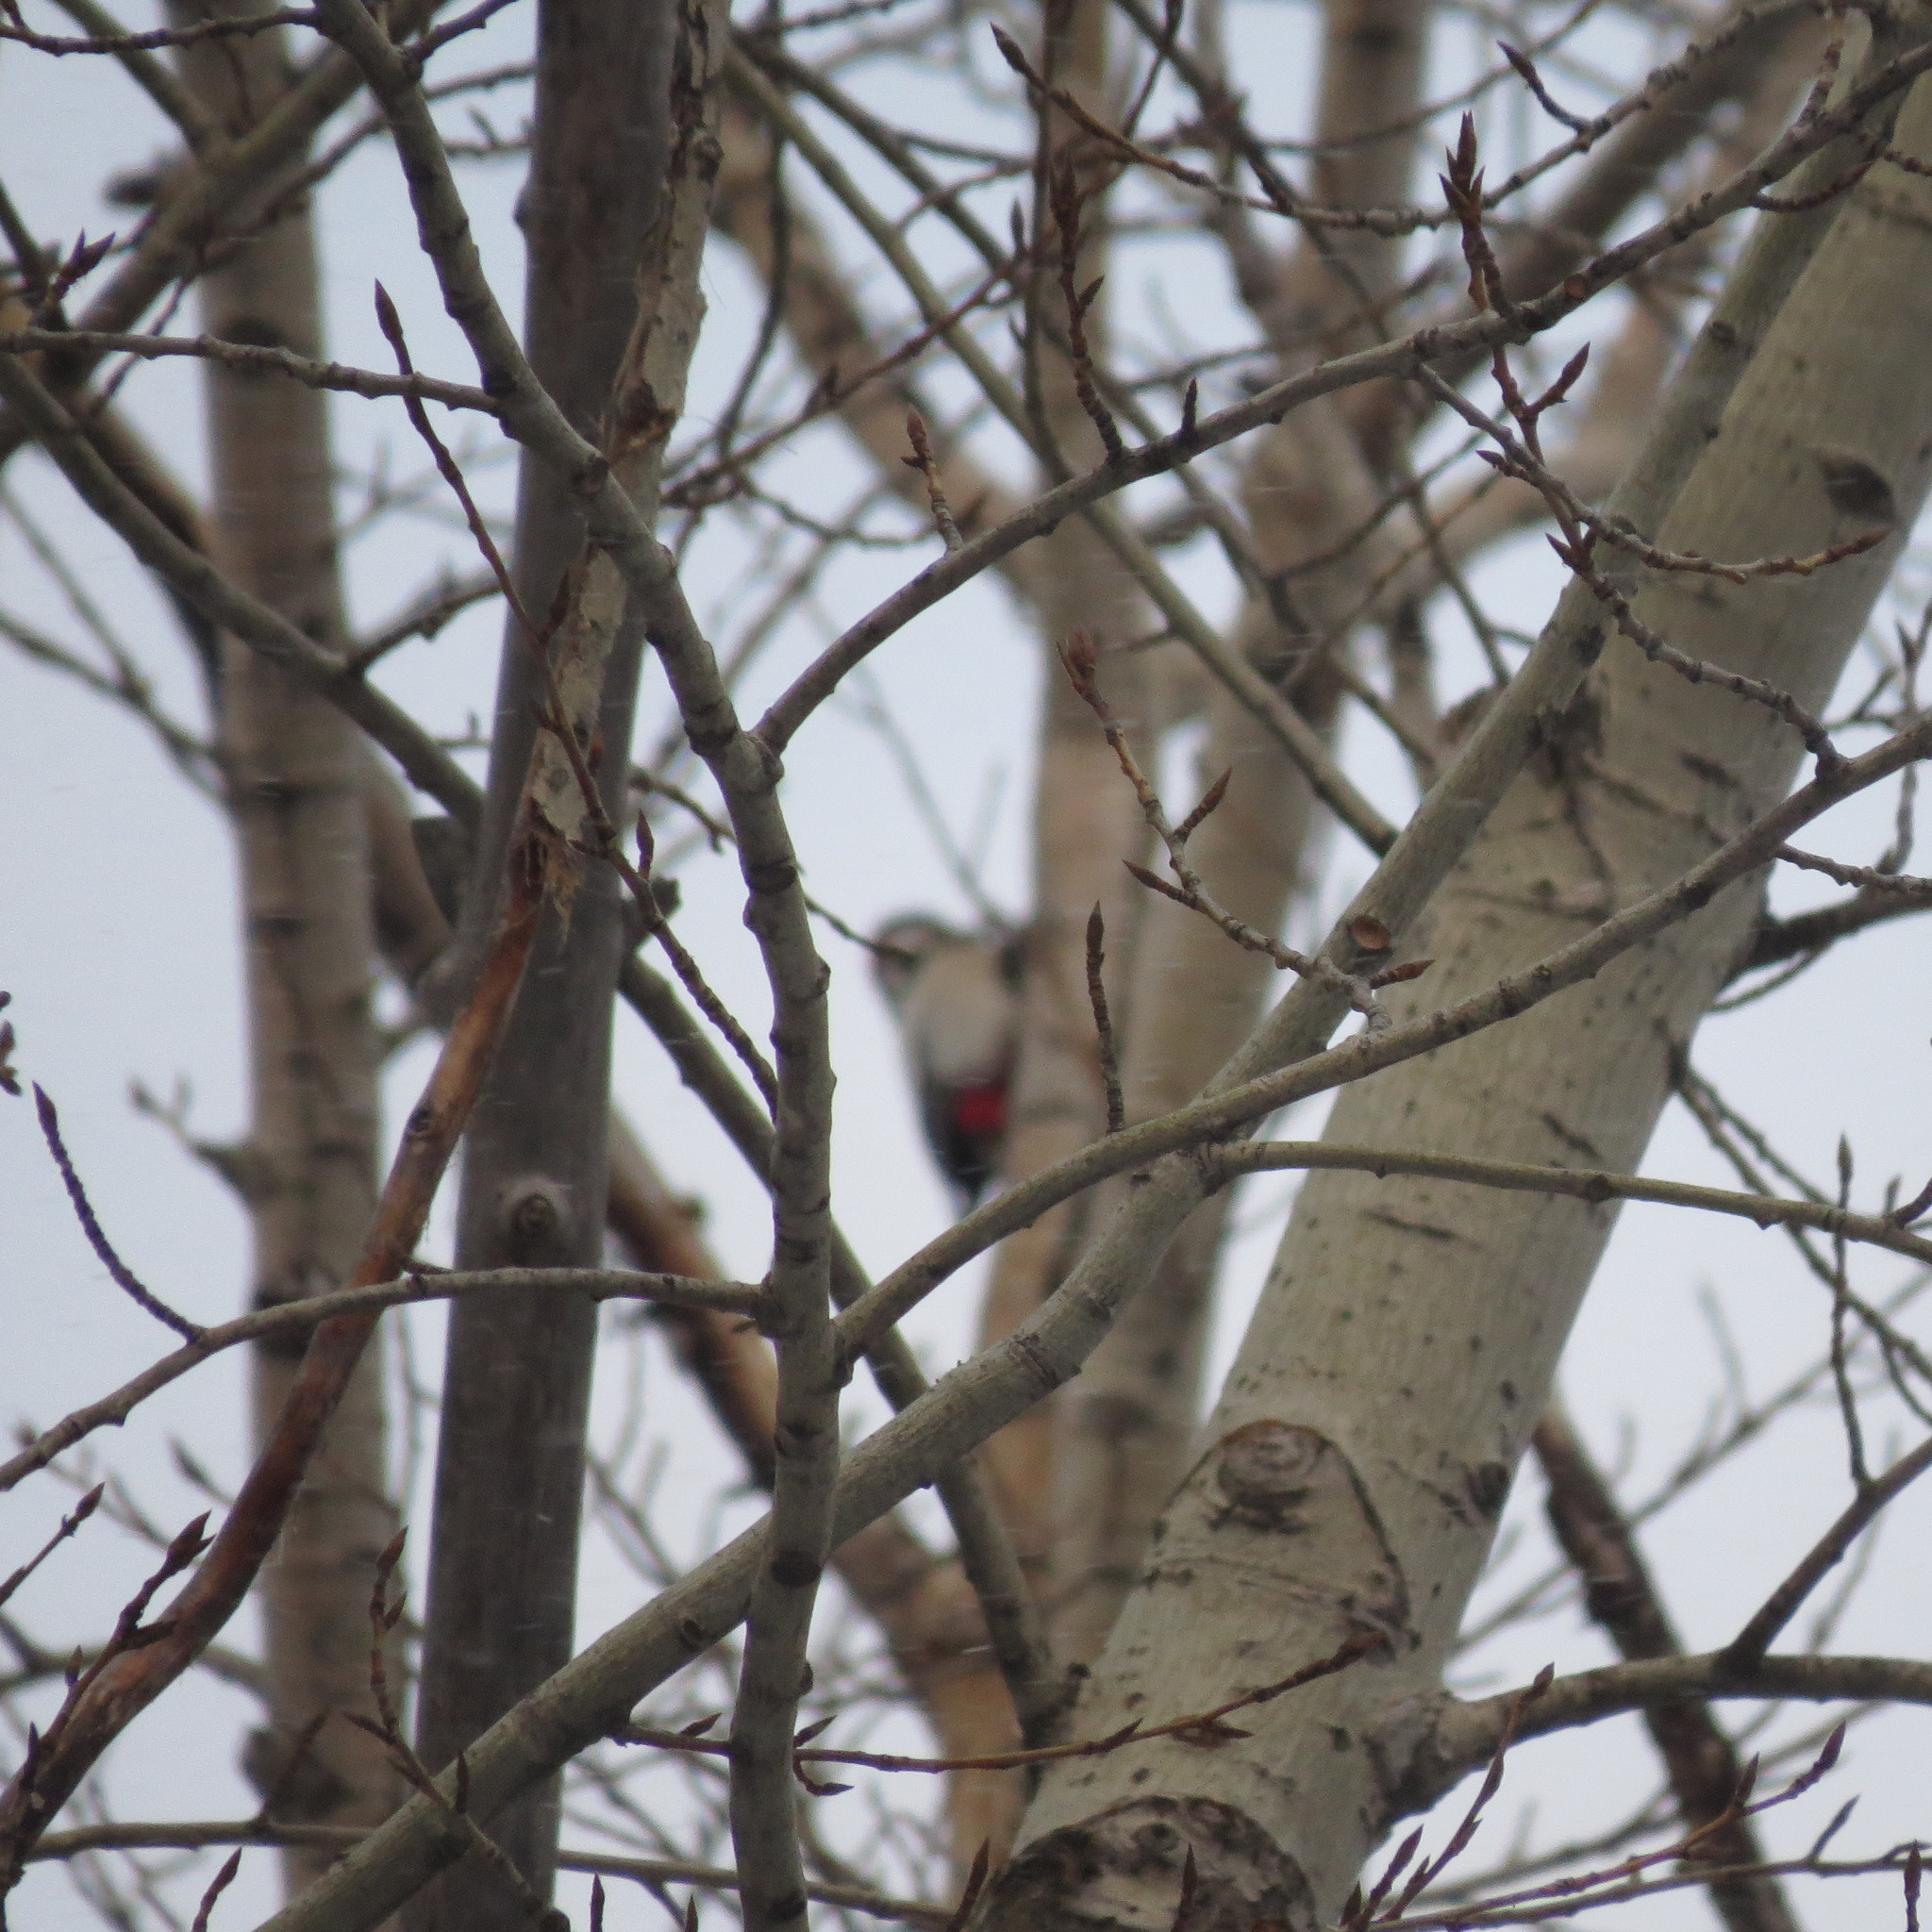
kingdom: Animalia
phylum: Chordata
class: Aves
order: Piciformes
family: Picidae
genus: Dendrocopos
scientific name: Dendrocopos major
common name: Great spotted woodpecker
